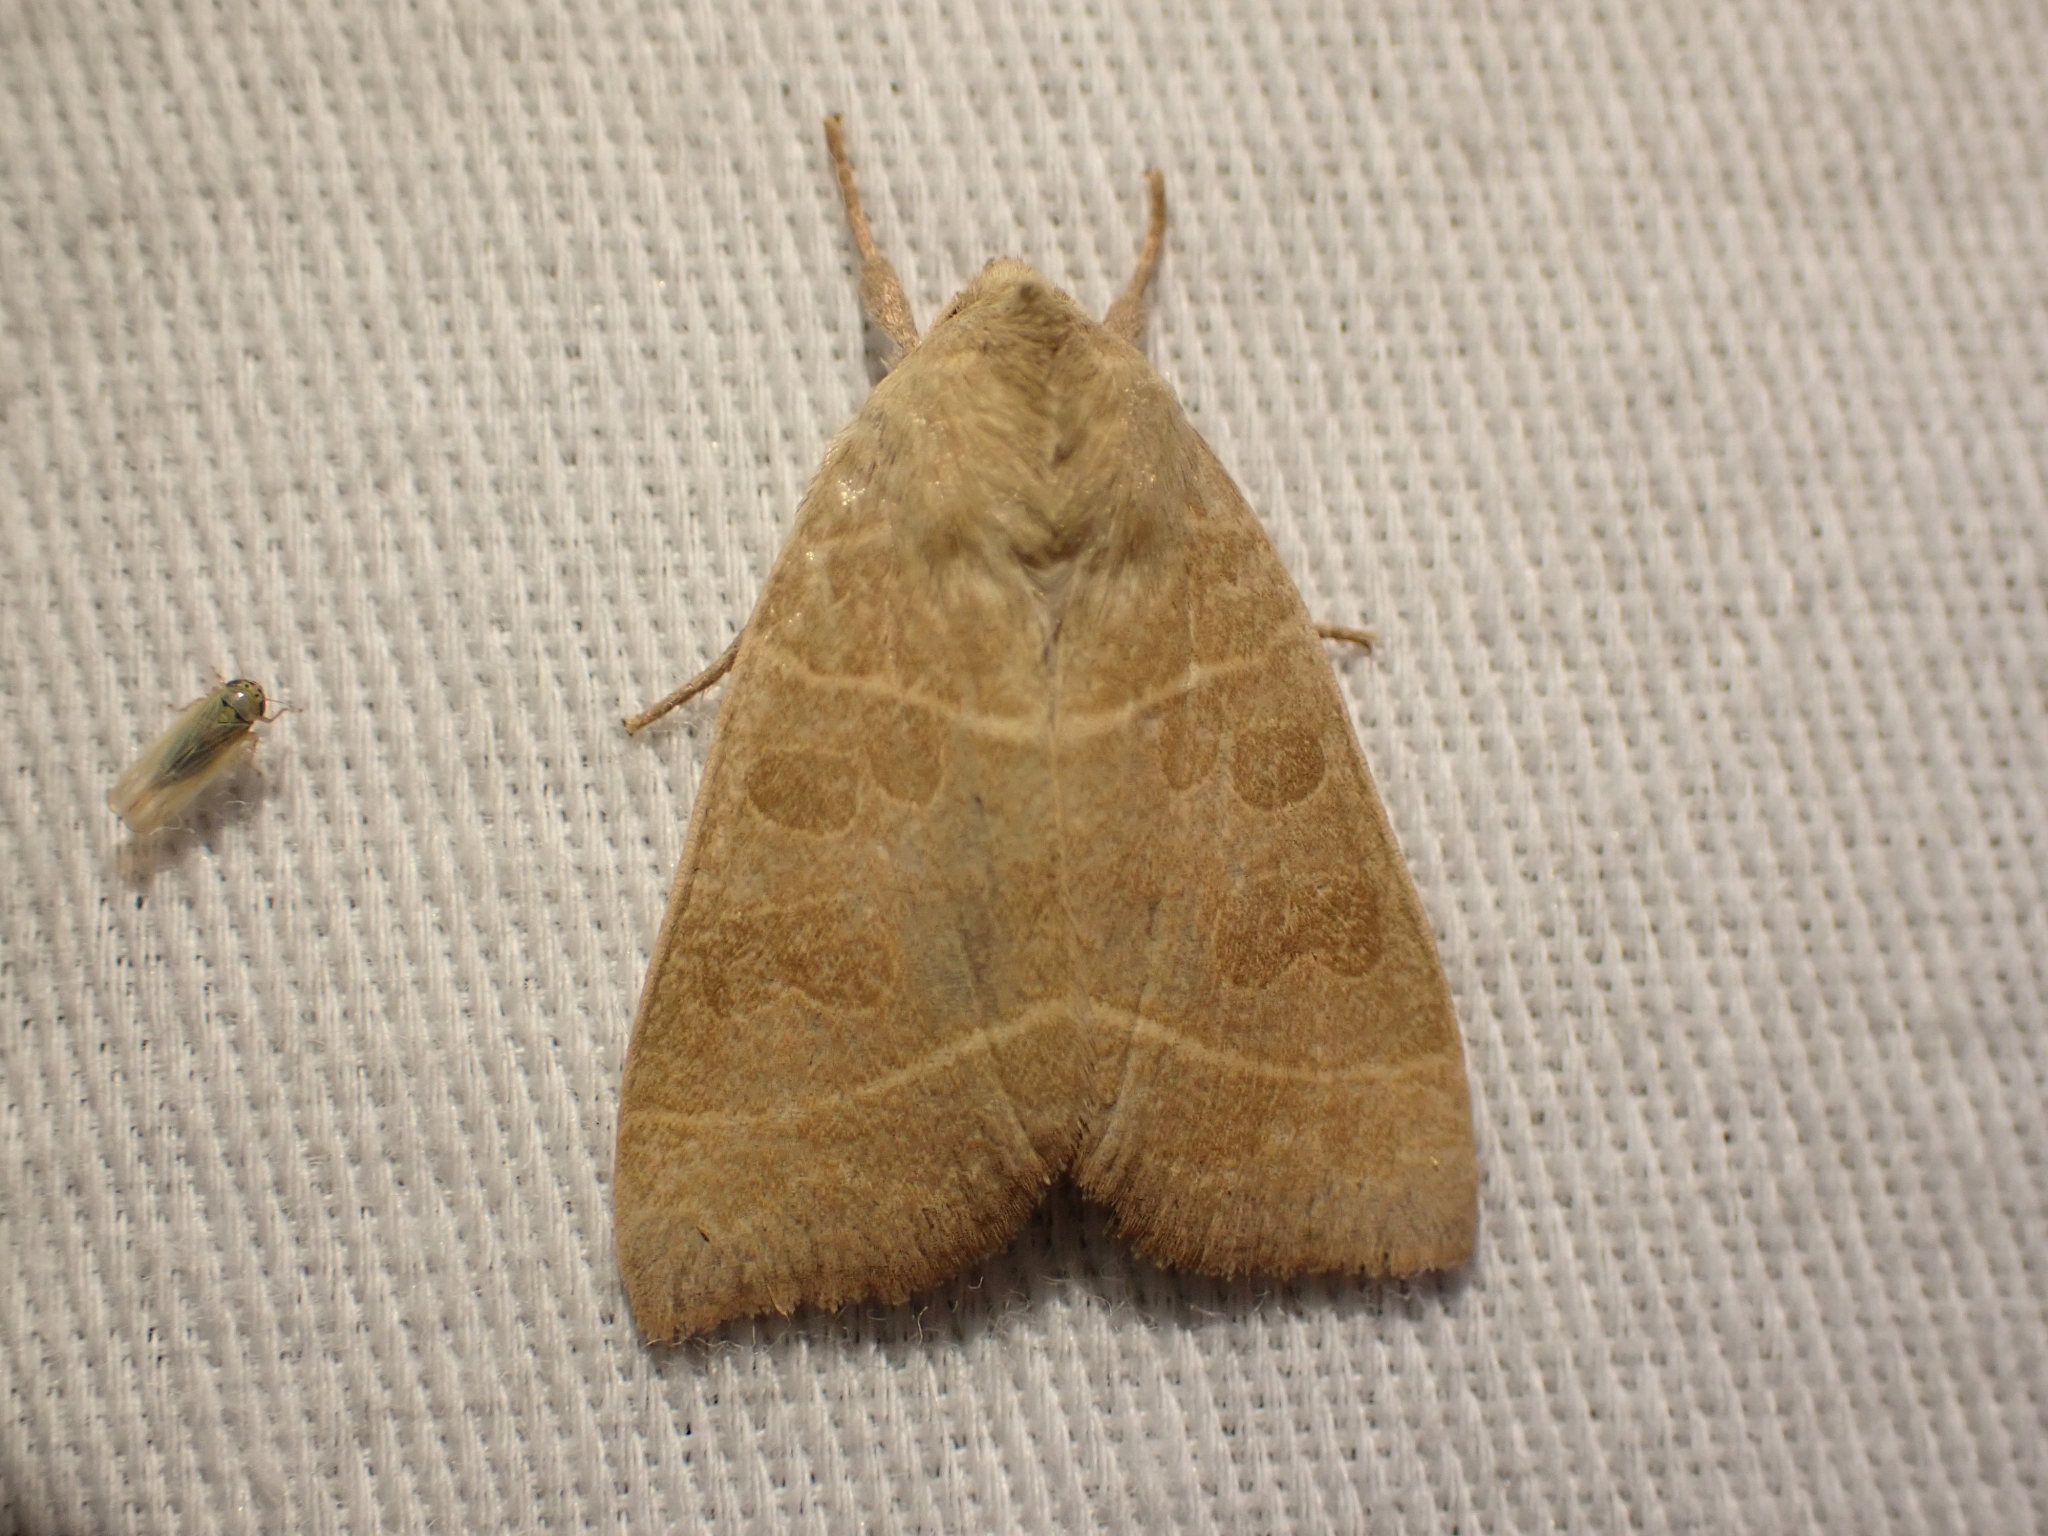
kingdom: Animalia
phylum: Arthropoda
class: Insecta
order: Lepidoptera
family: Noctuidae
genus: Ipimorpha
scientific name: Ipimorpha pleonectusa
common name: Even-lined sallow
